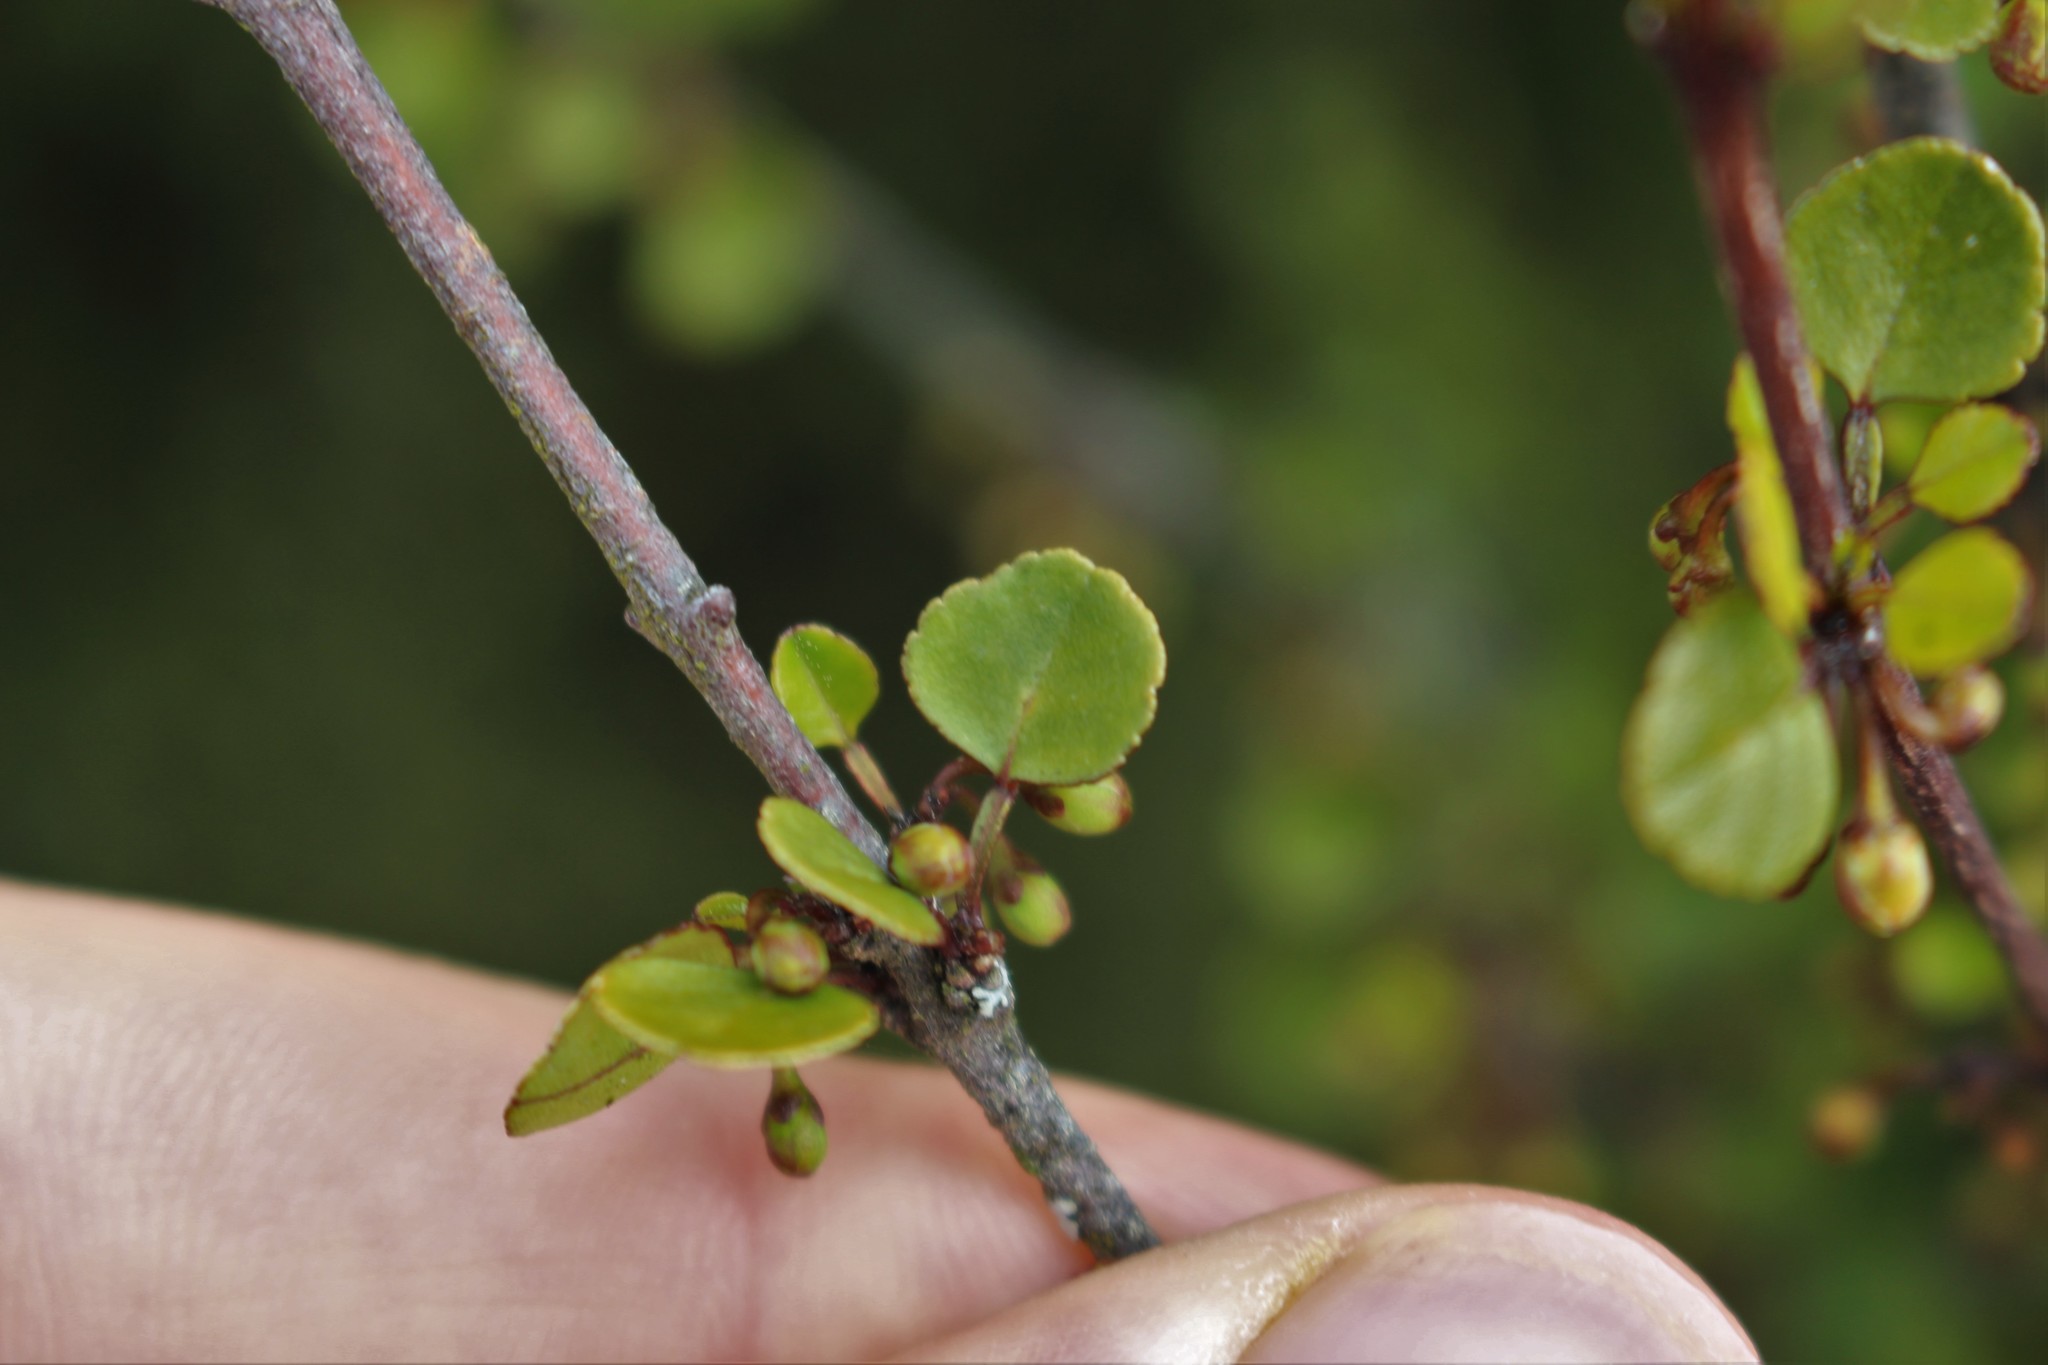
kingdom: Plantae
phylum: Tracheophyta
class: Magnoliopsida
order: Sapindales
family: Rutaceae
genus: Melicope
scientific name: Melicope simplex
